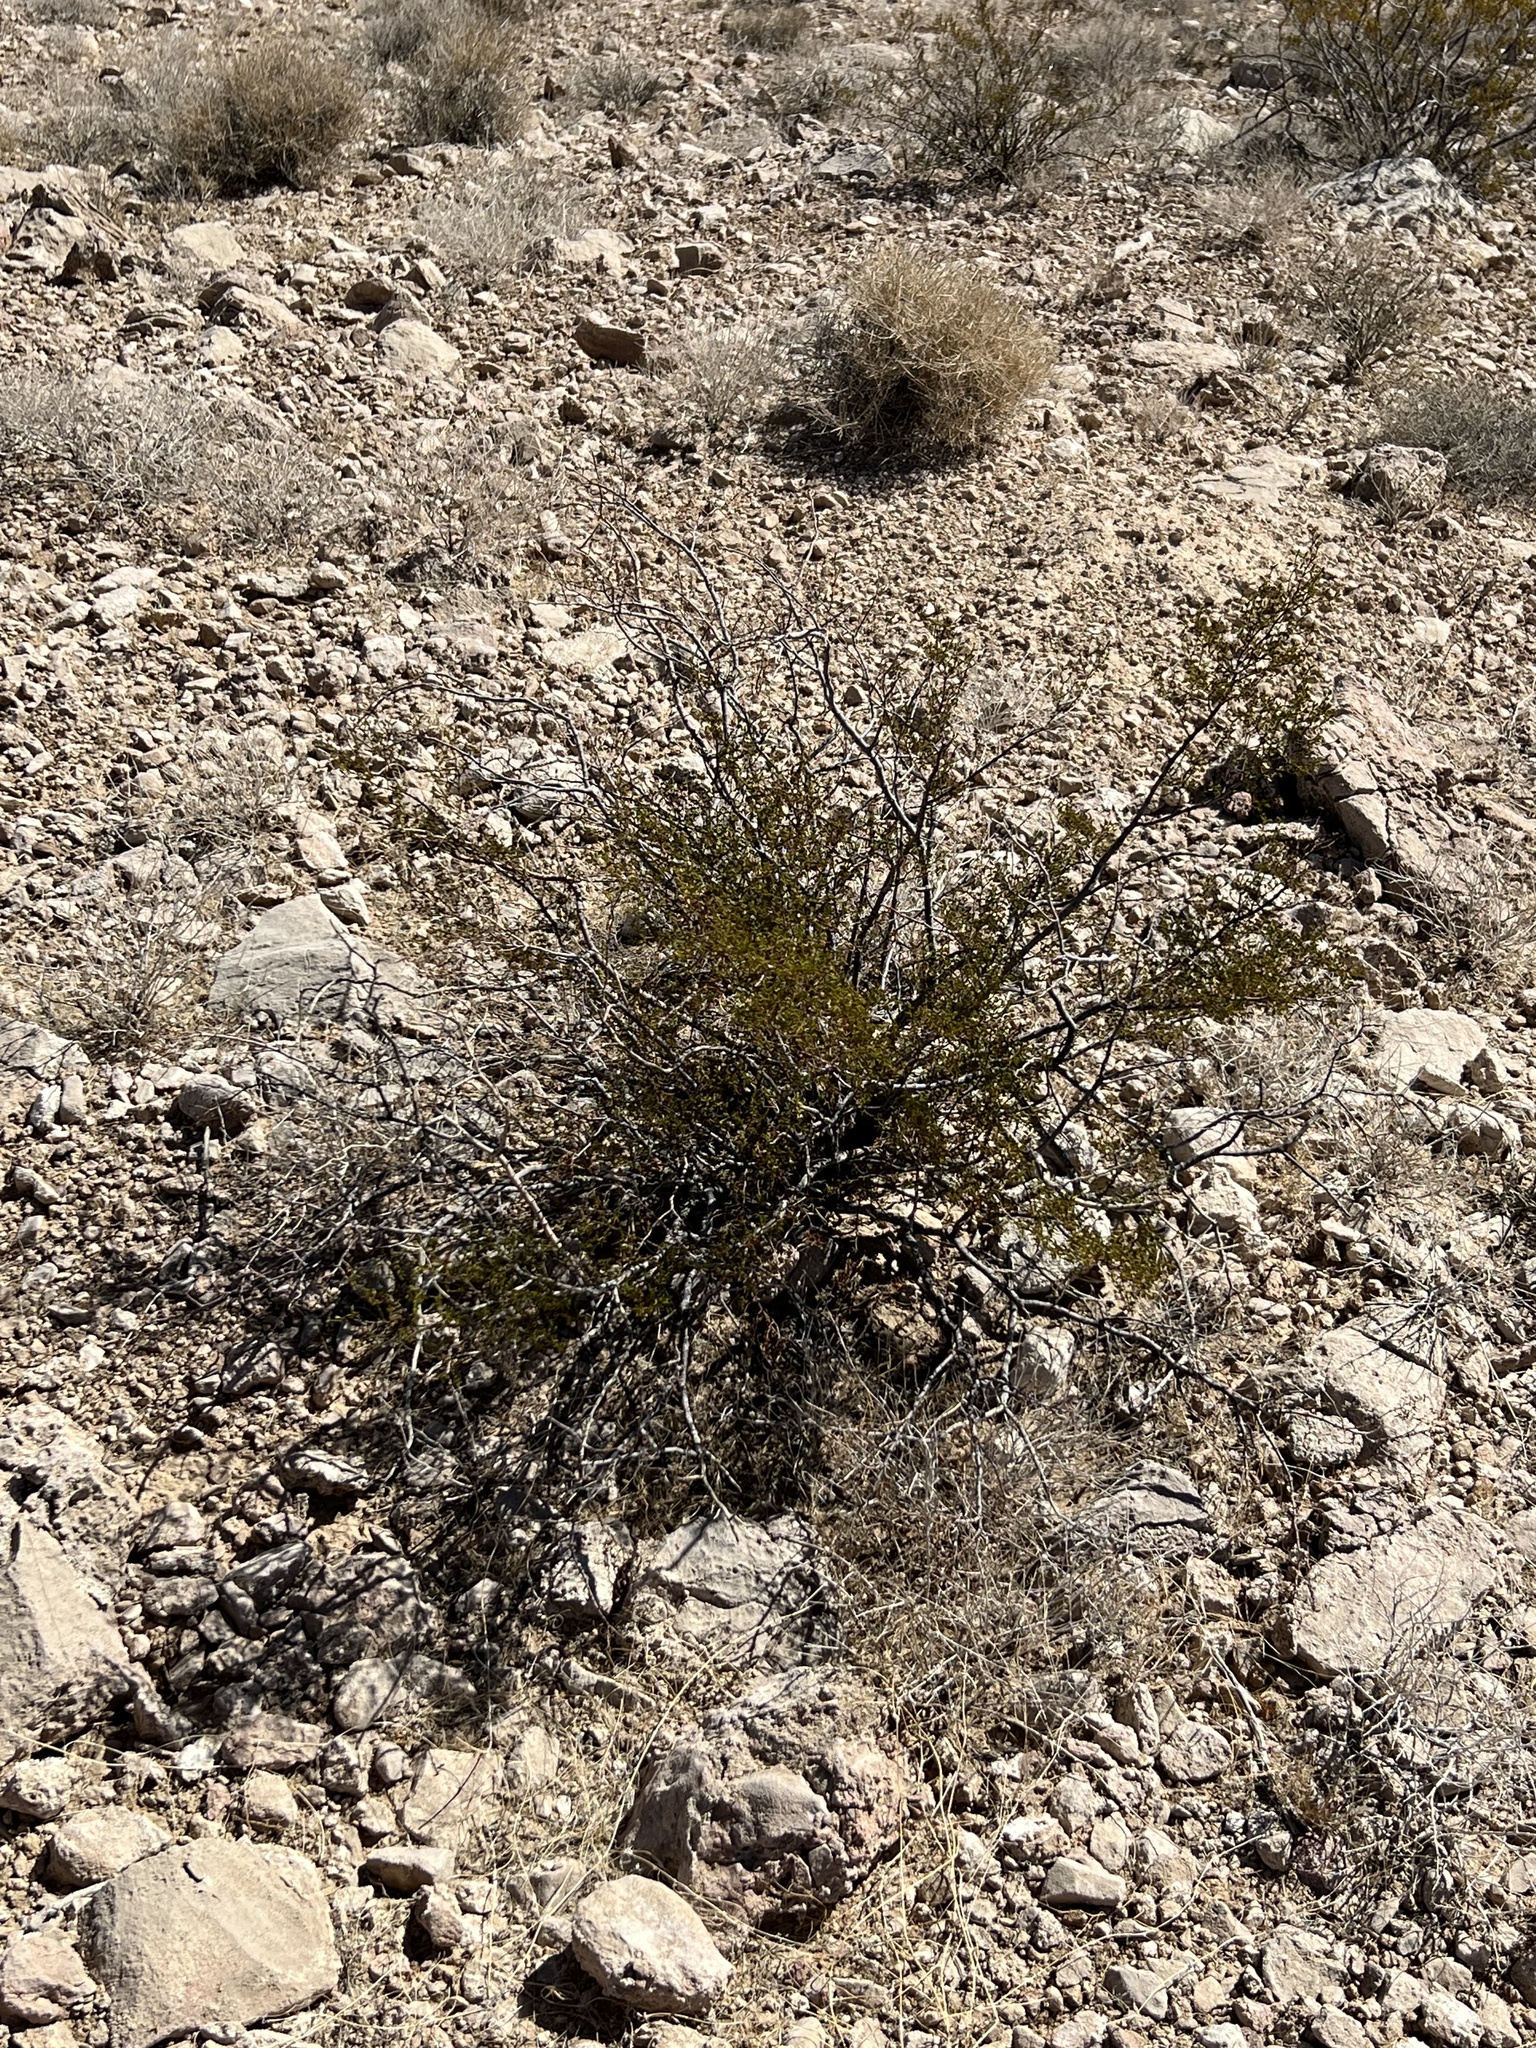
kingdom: Plantae
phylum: Tracheophyta
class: Magnoliopsida
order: Zygophyllales
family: Zygophyllaceae
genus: Larrea
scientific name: Larrea tridentata
